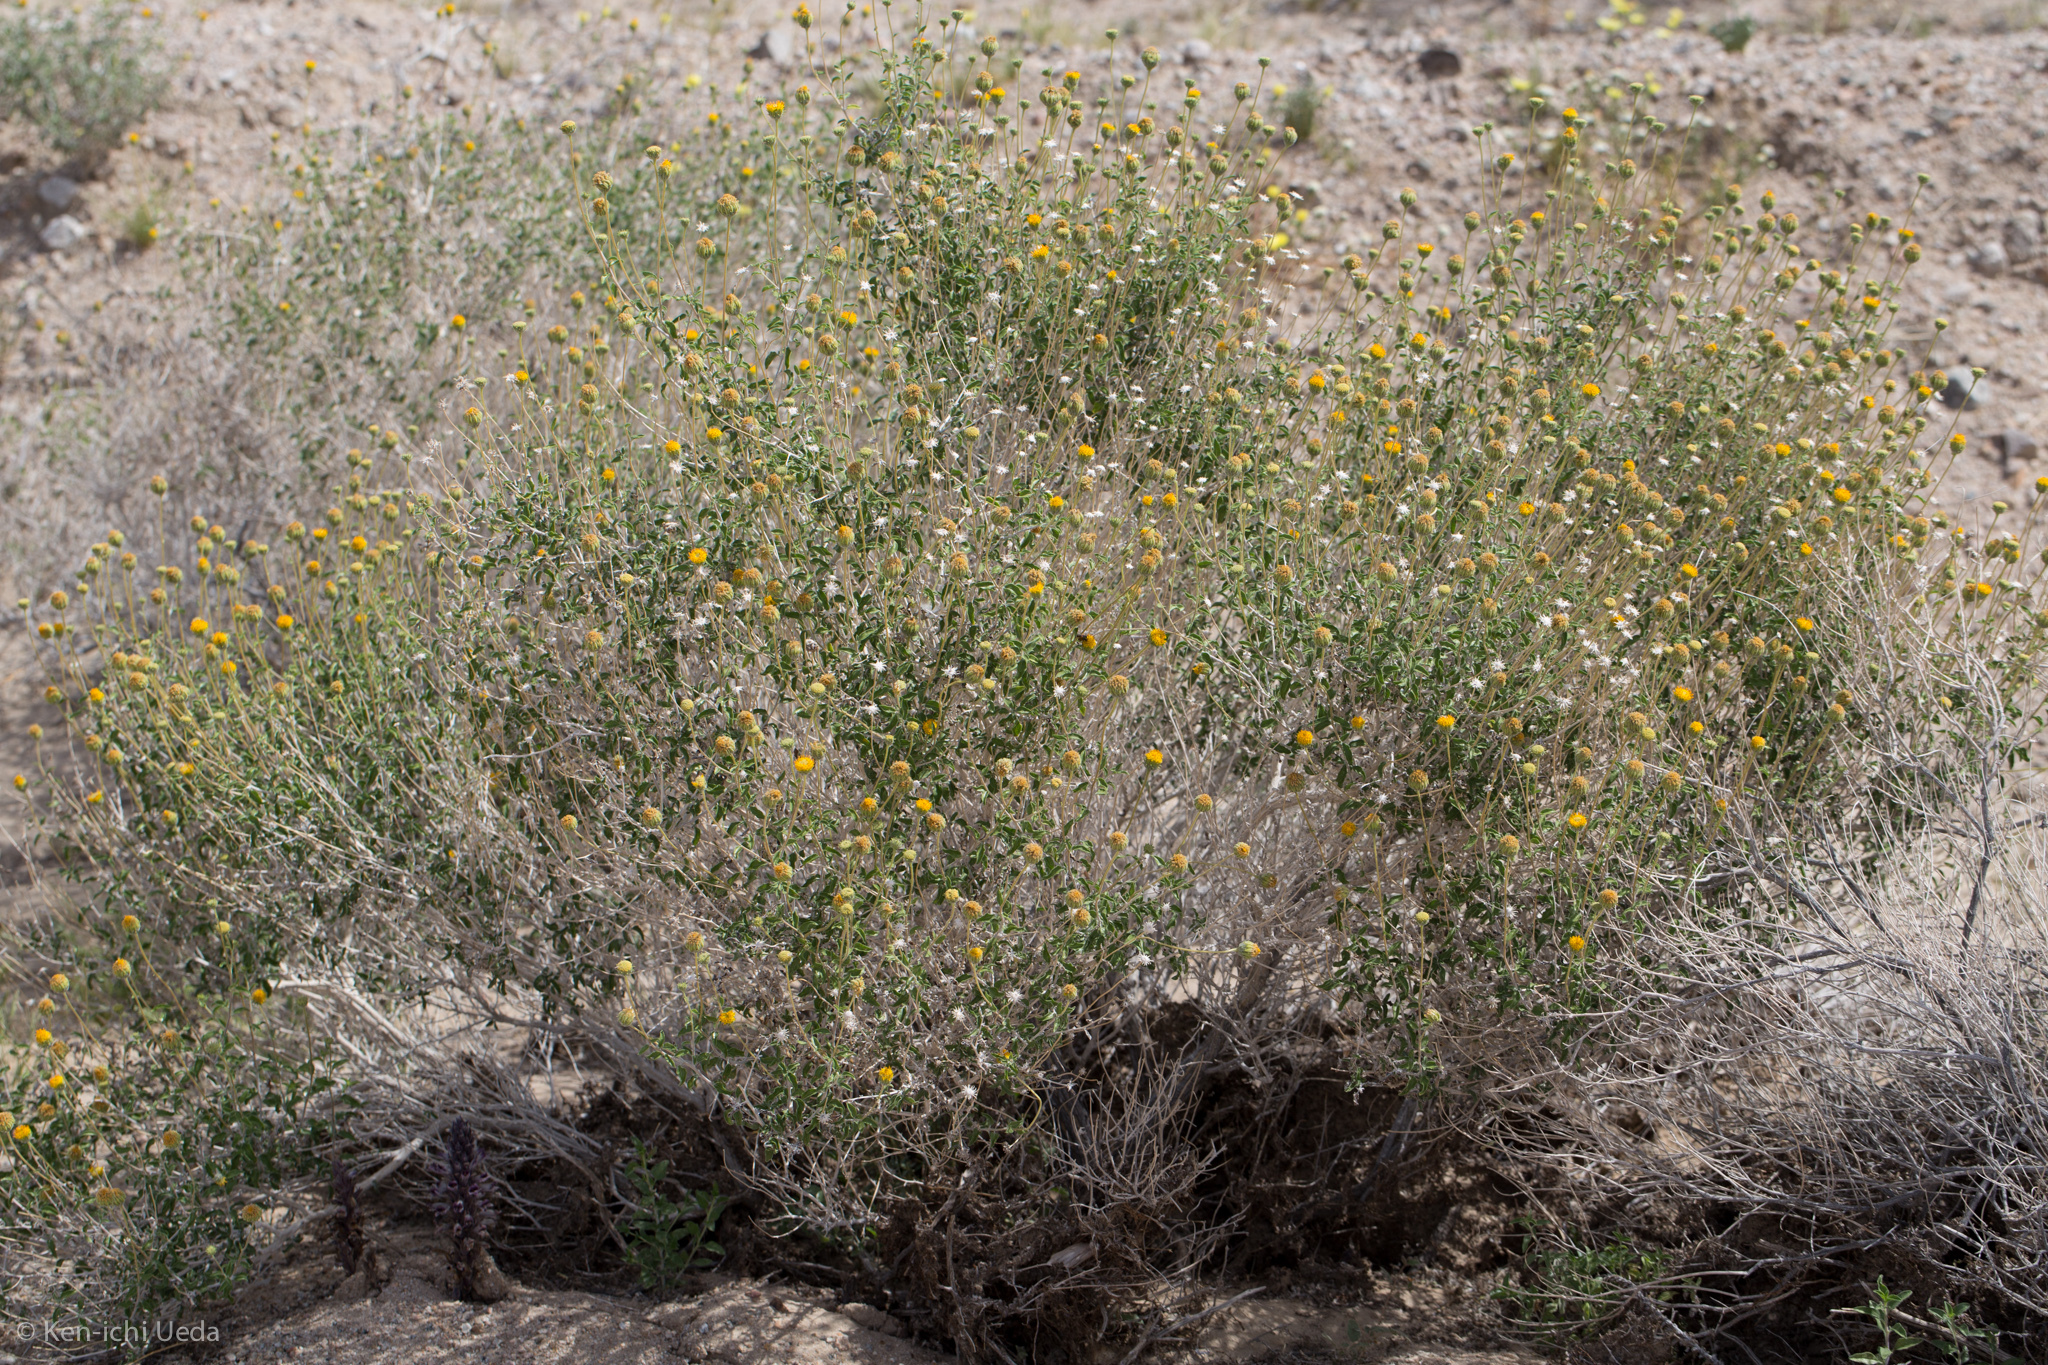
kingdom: Plantae
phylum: Tracheophyta
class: Magnoliopsida
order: Asterales
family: Asteraceae
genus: Encelia
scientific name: Encelia frutescens
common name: Bush encelia
